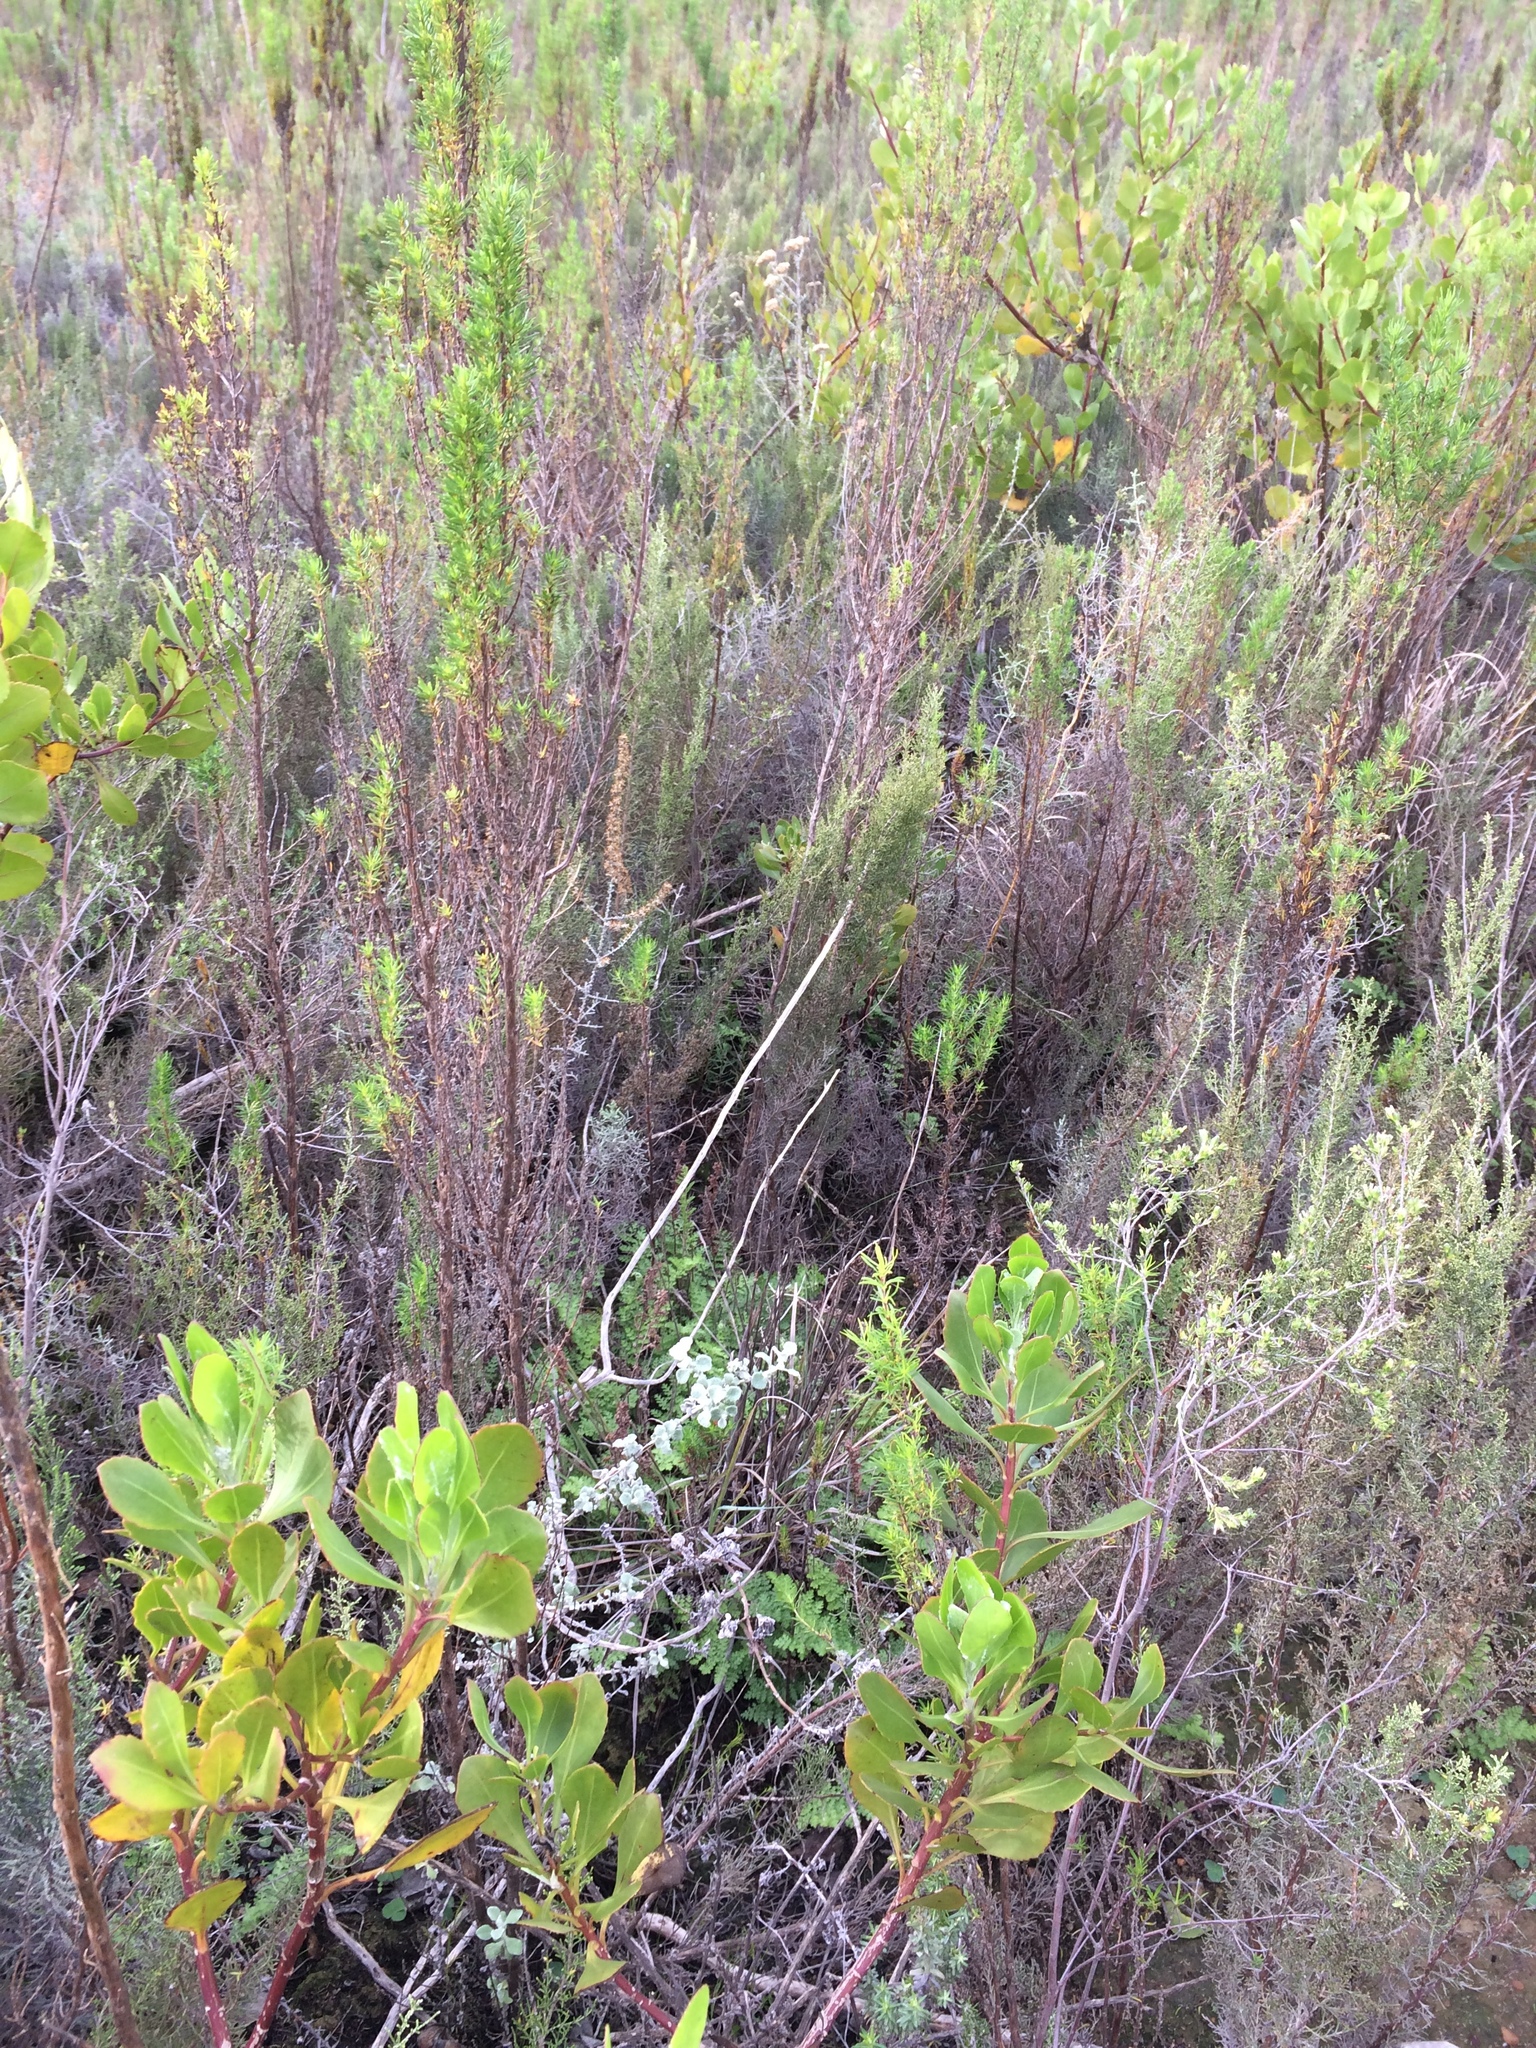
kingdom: Plantae
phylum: Tracheophyta
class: Polypodiopsida
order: Schizaeales
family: Anemiaceae
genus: Anemia
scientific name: Anemia caffrorum
